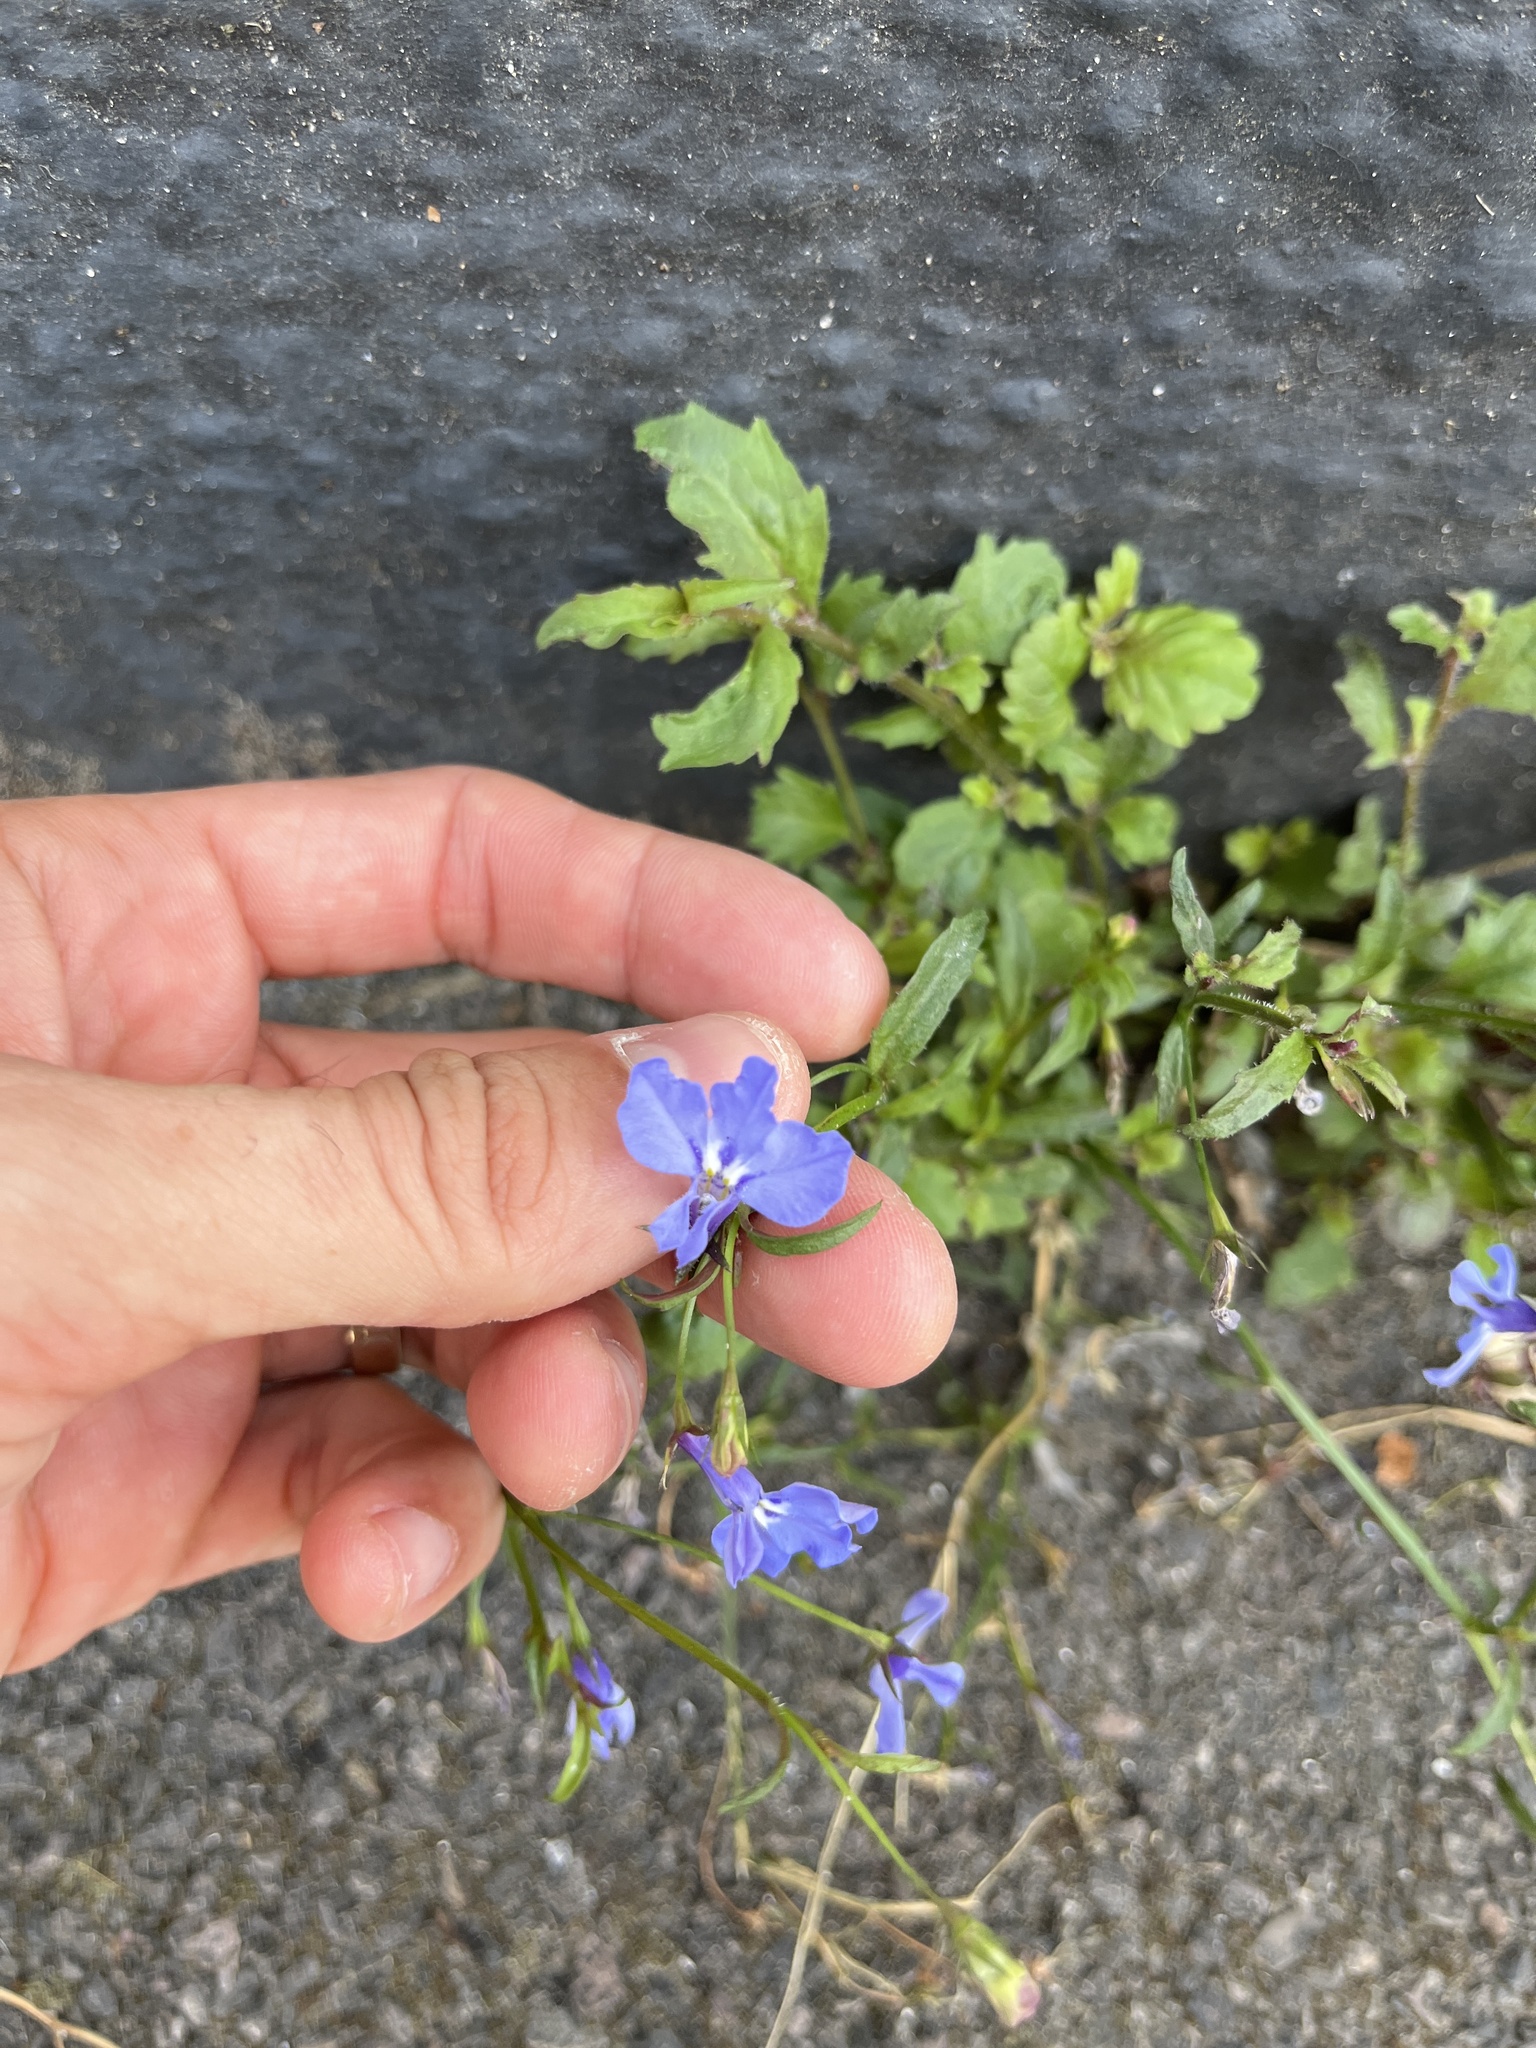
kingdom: Plantae
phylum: Tracheophyta
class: Magnoliopsida
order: Asterales
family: Campanulaceae
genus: Lobelia
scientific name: Lobelia erinus
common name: Edging lobelia
